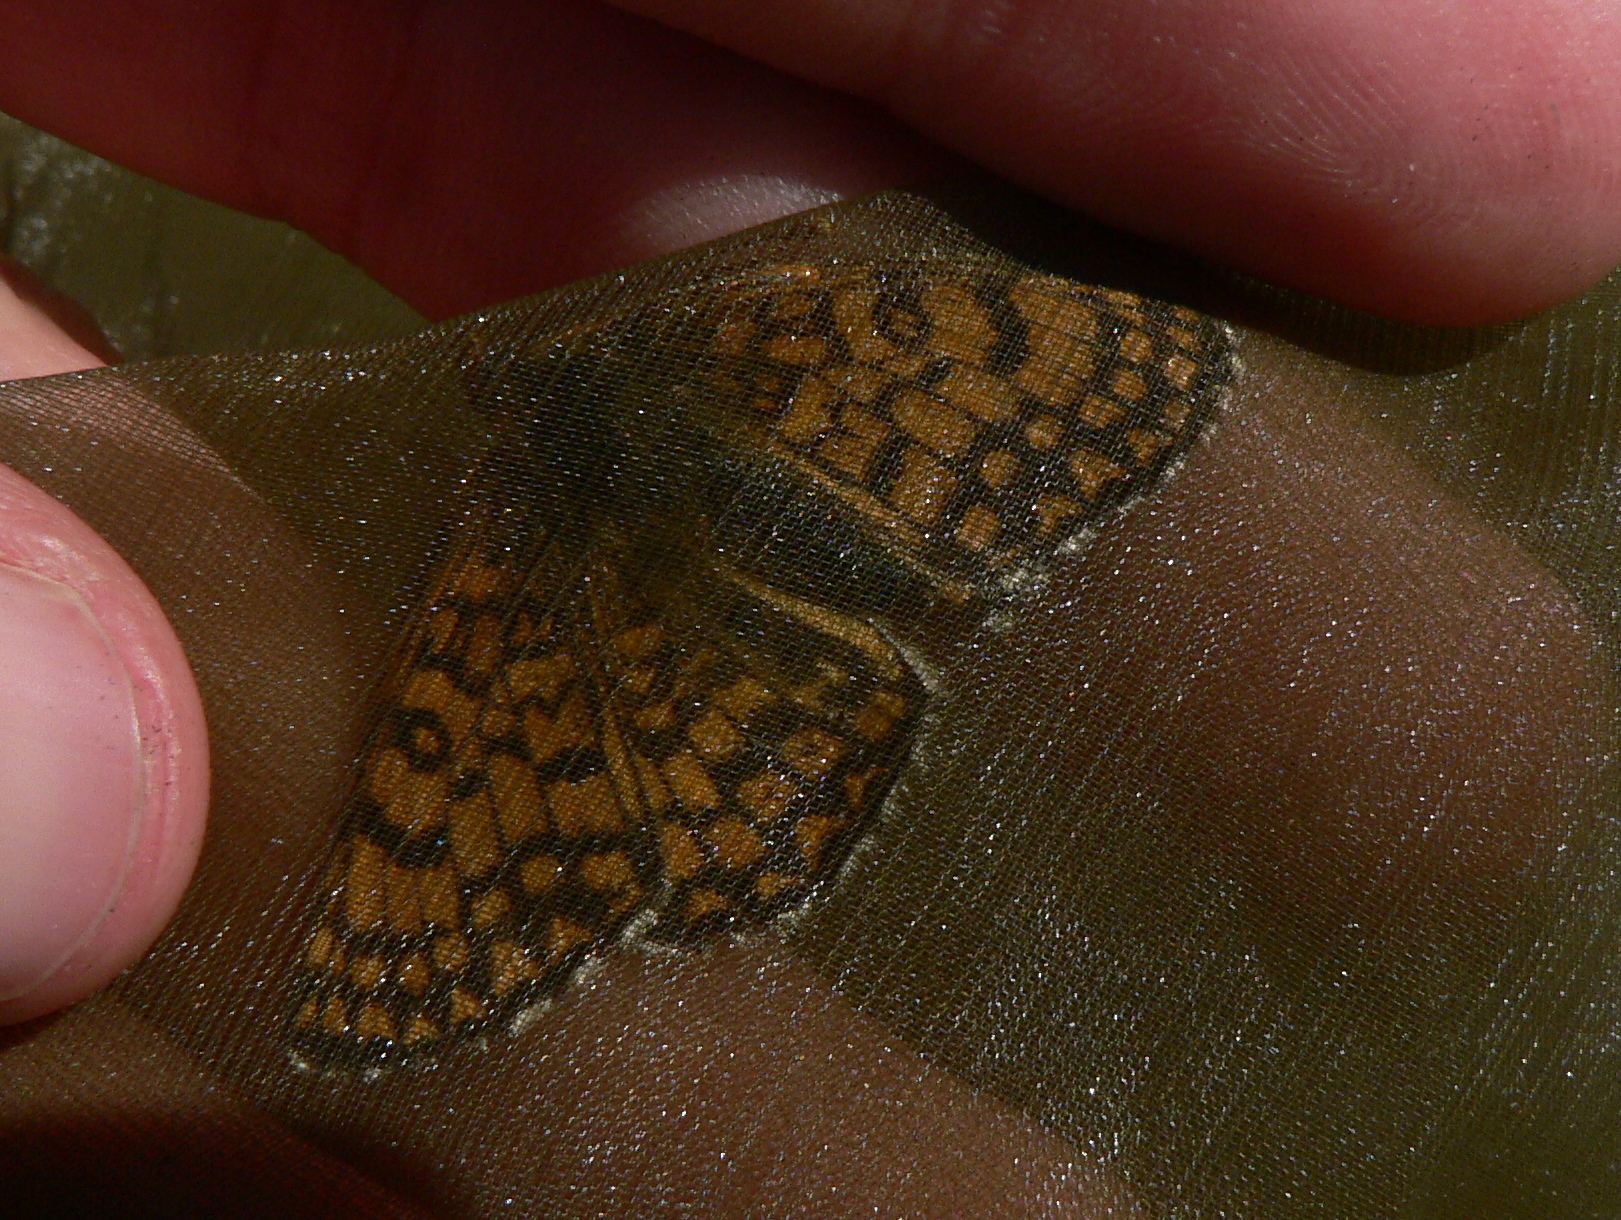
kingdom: Animalia
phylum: Arthropoda
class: Insecta
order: Lepidoptera
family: Nymphalidae
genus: Melitaea
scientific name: Melitaea cinxia
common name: Glanville fritillary
